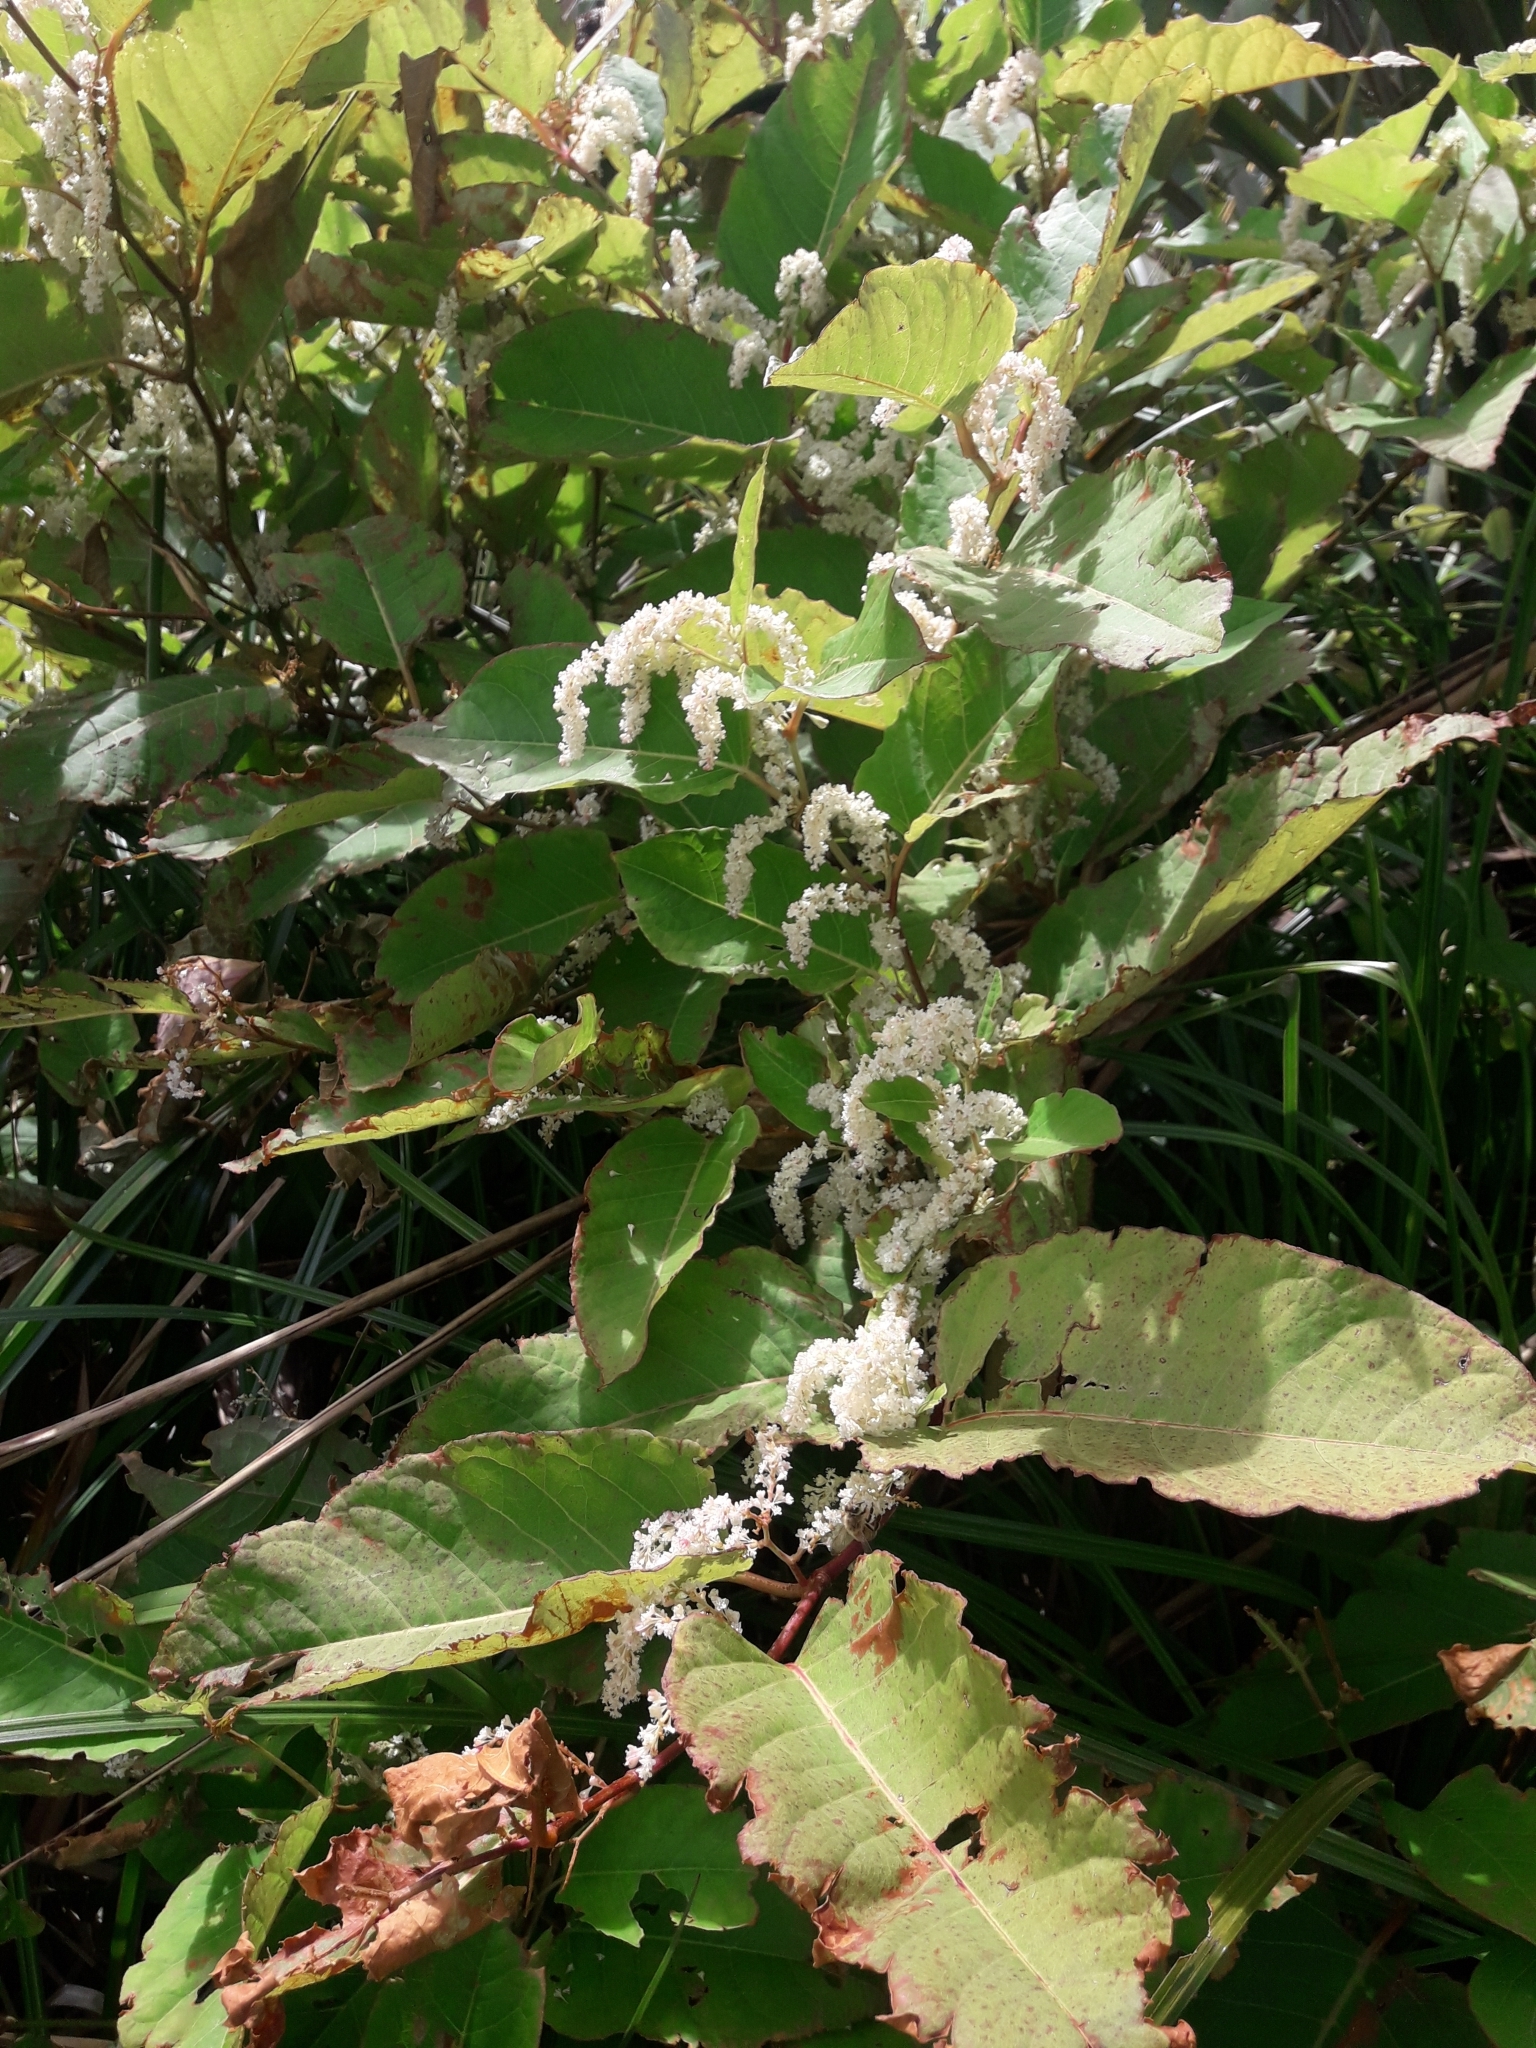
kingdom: Plantae
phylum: Tracheophyta
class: Magnoliopsida
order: Caryophyllales
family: Polygonaceae
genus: Reynoutria
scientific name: Reynoutria japonica
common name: Japanese knotweed
